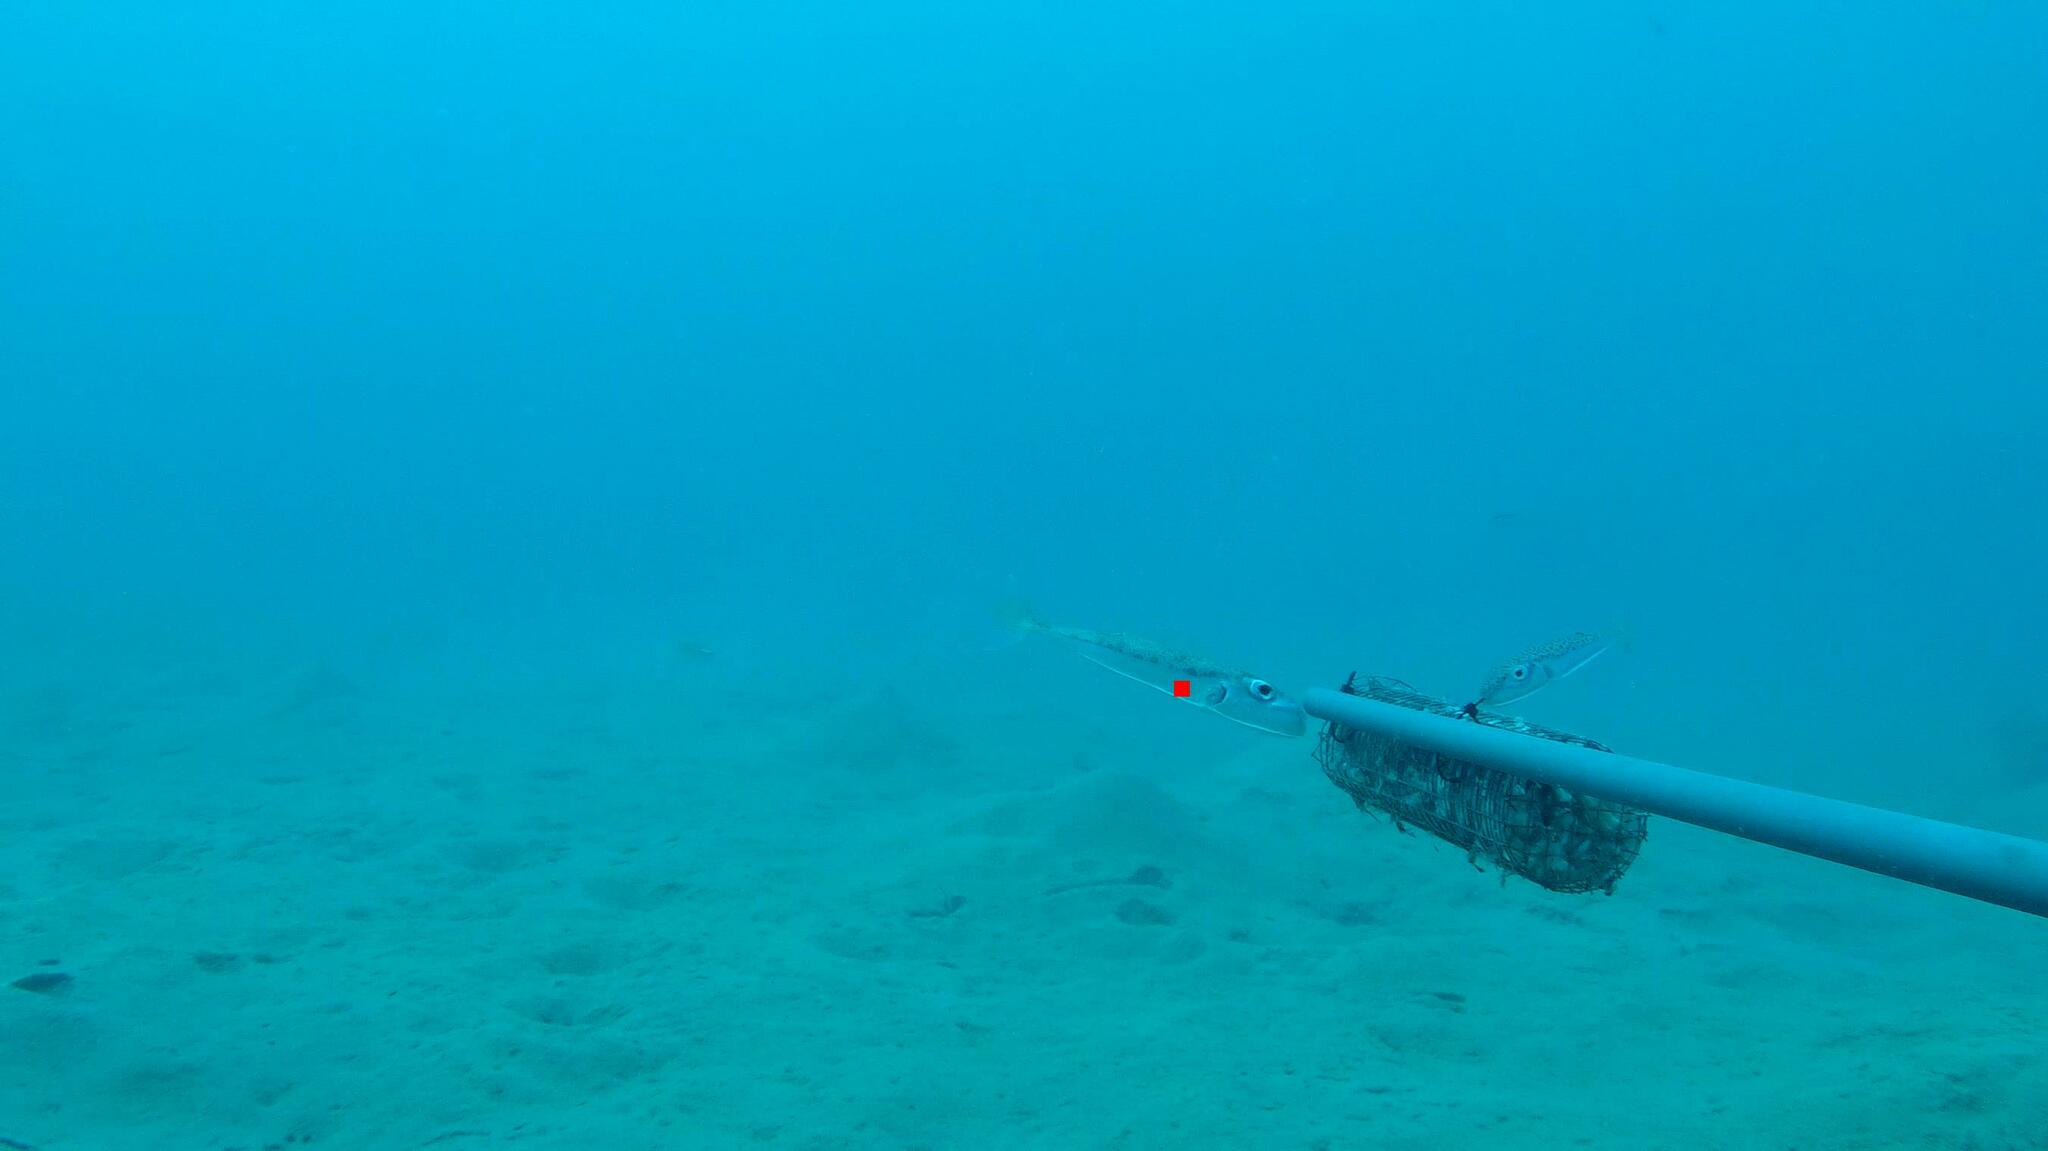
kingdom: Animalia
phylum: Chordata
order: Tetraodontiformes
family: Tetraodontidae
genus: Lagocephalus
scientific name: Lagocephalus suezensis
